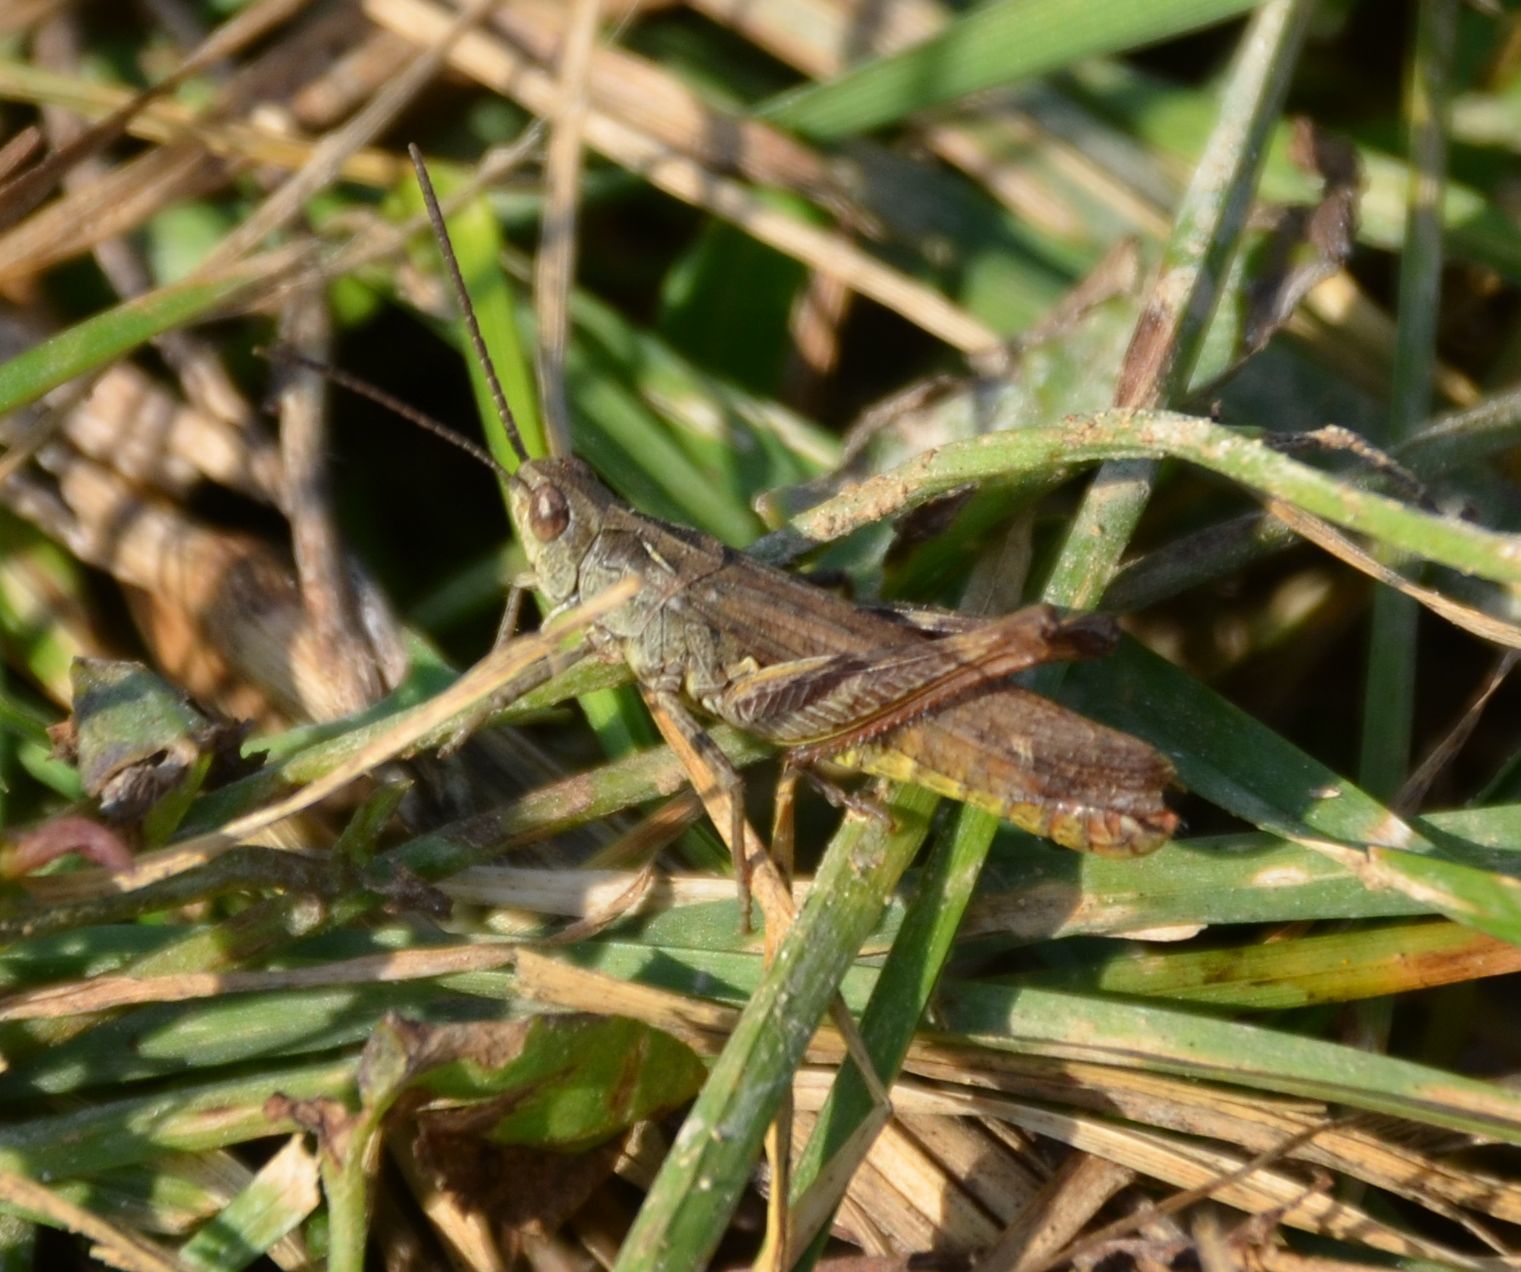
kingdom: Animalia
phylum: Arthropoda
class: Insecta
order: Orthoptera
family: Acrididae
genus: Chorthippus
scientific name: Chorthippus brunneus
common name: Field grasshopper
